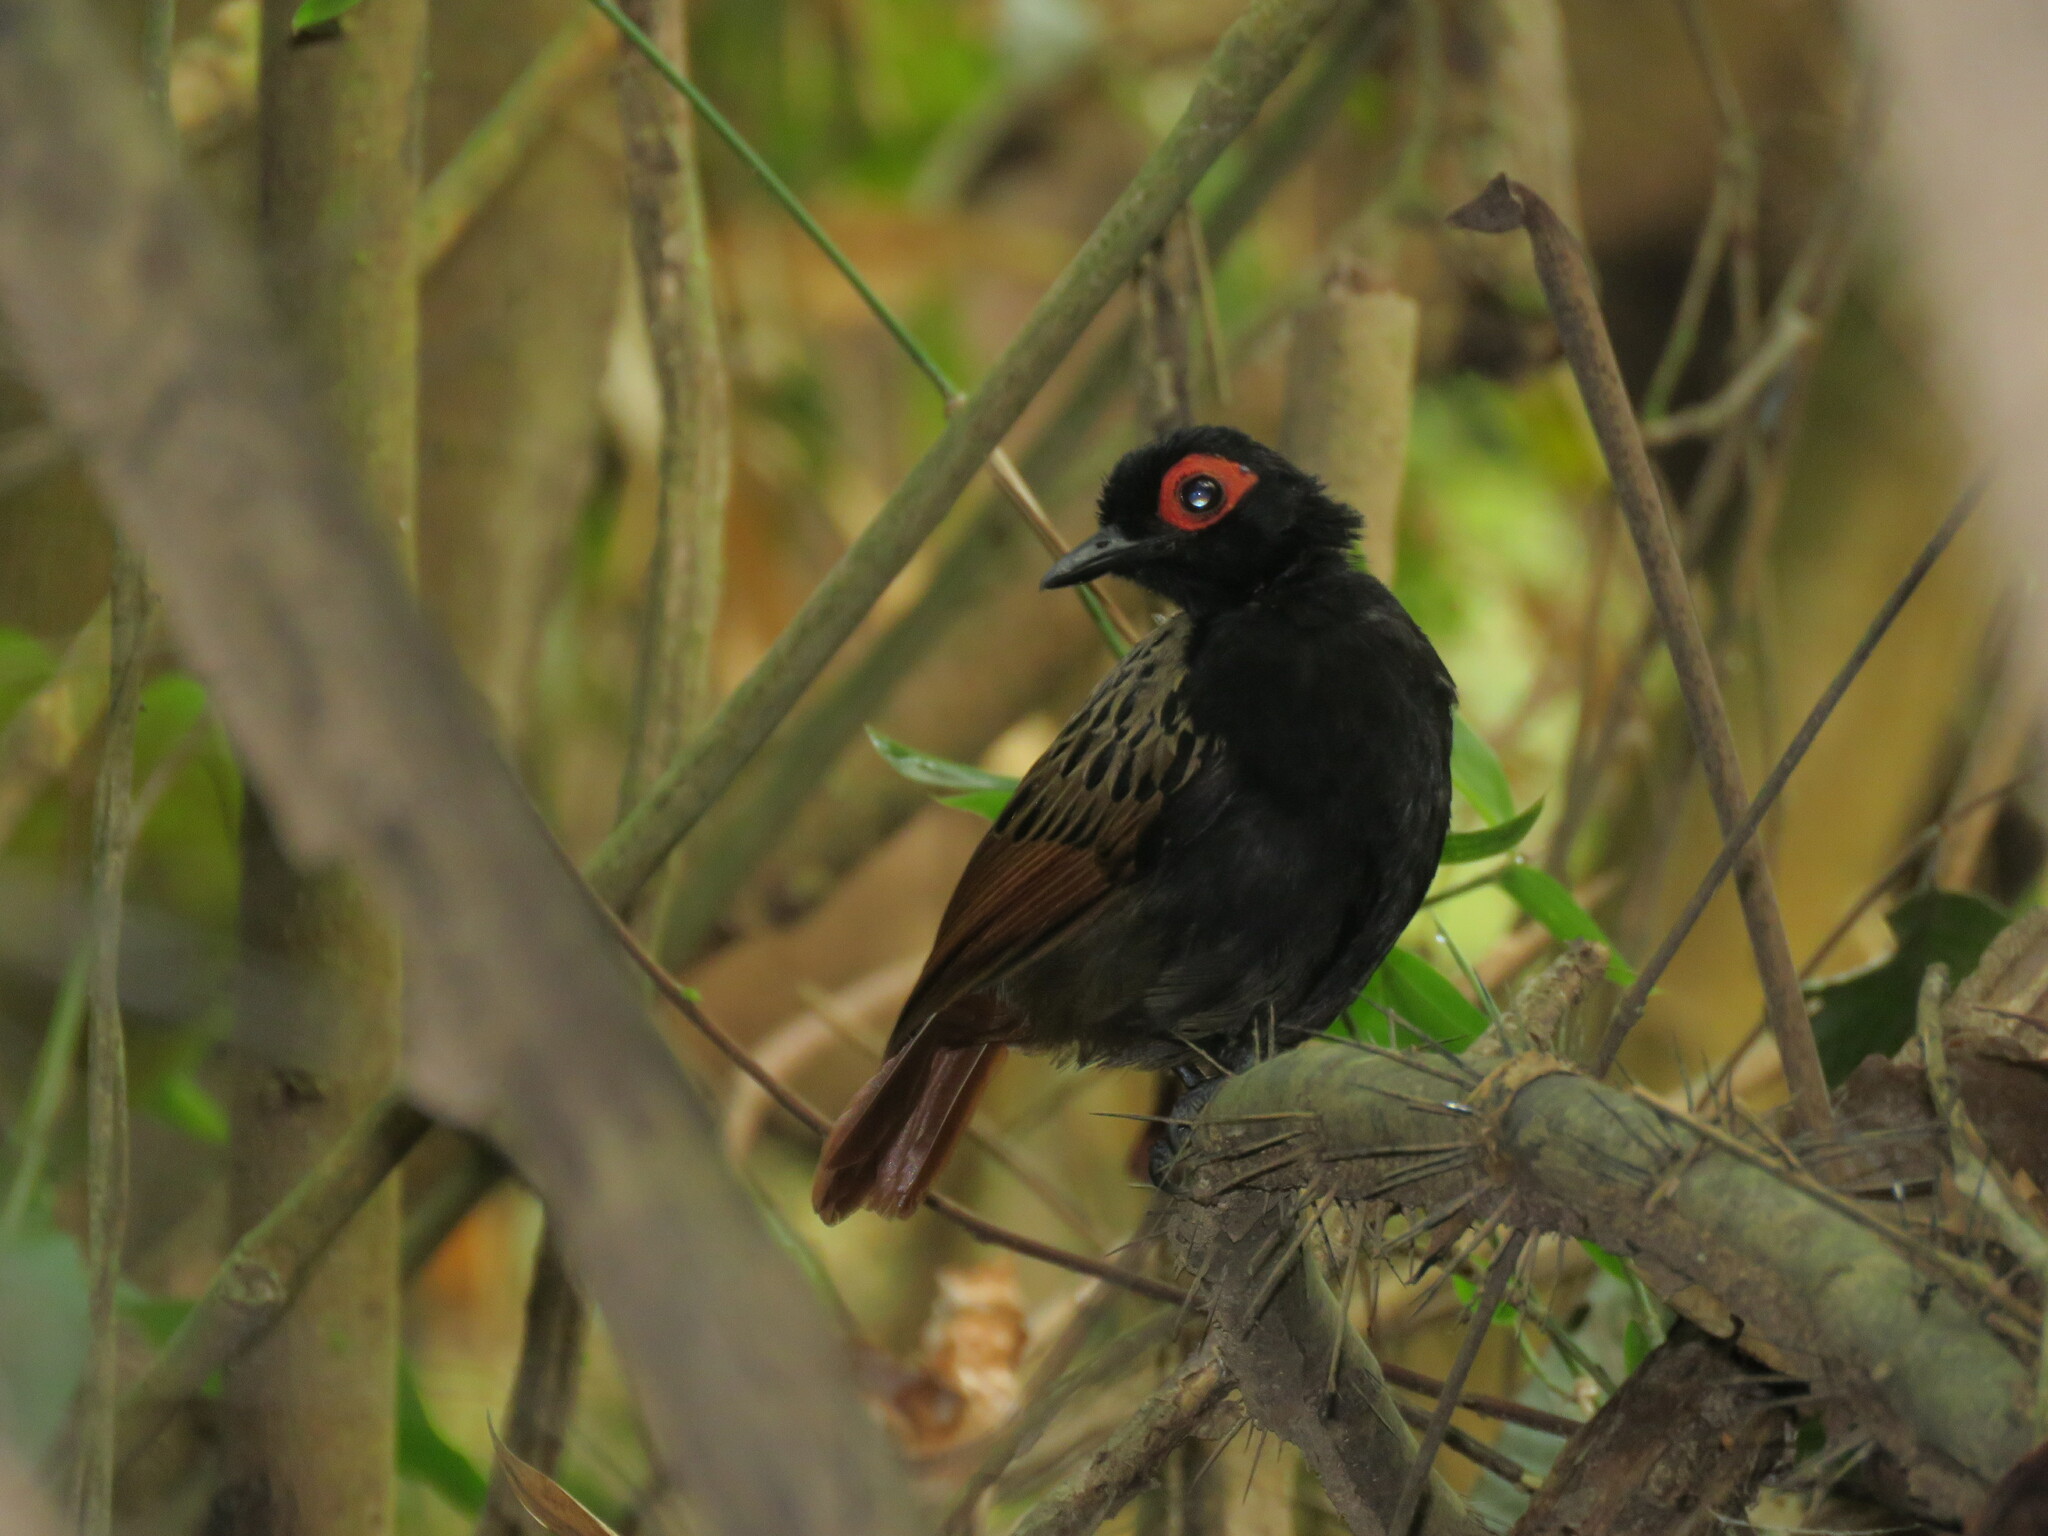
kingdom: Animalia
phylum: Chordata
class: Aves
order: Passeriformes
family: Thamnophilidae
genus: Phlegopsis
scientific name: Phlegopsis nigromaculata
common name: Black-spotted bare-eye
